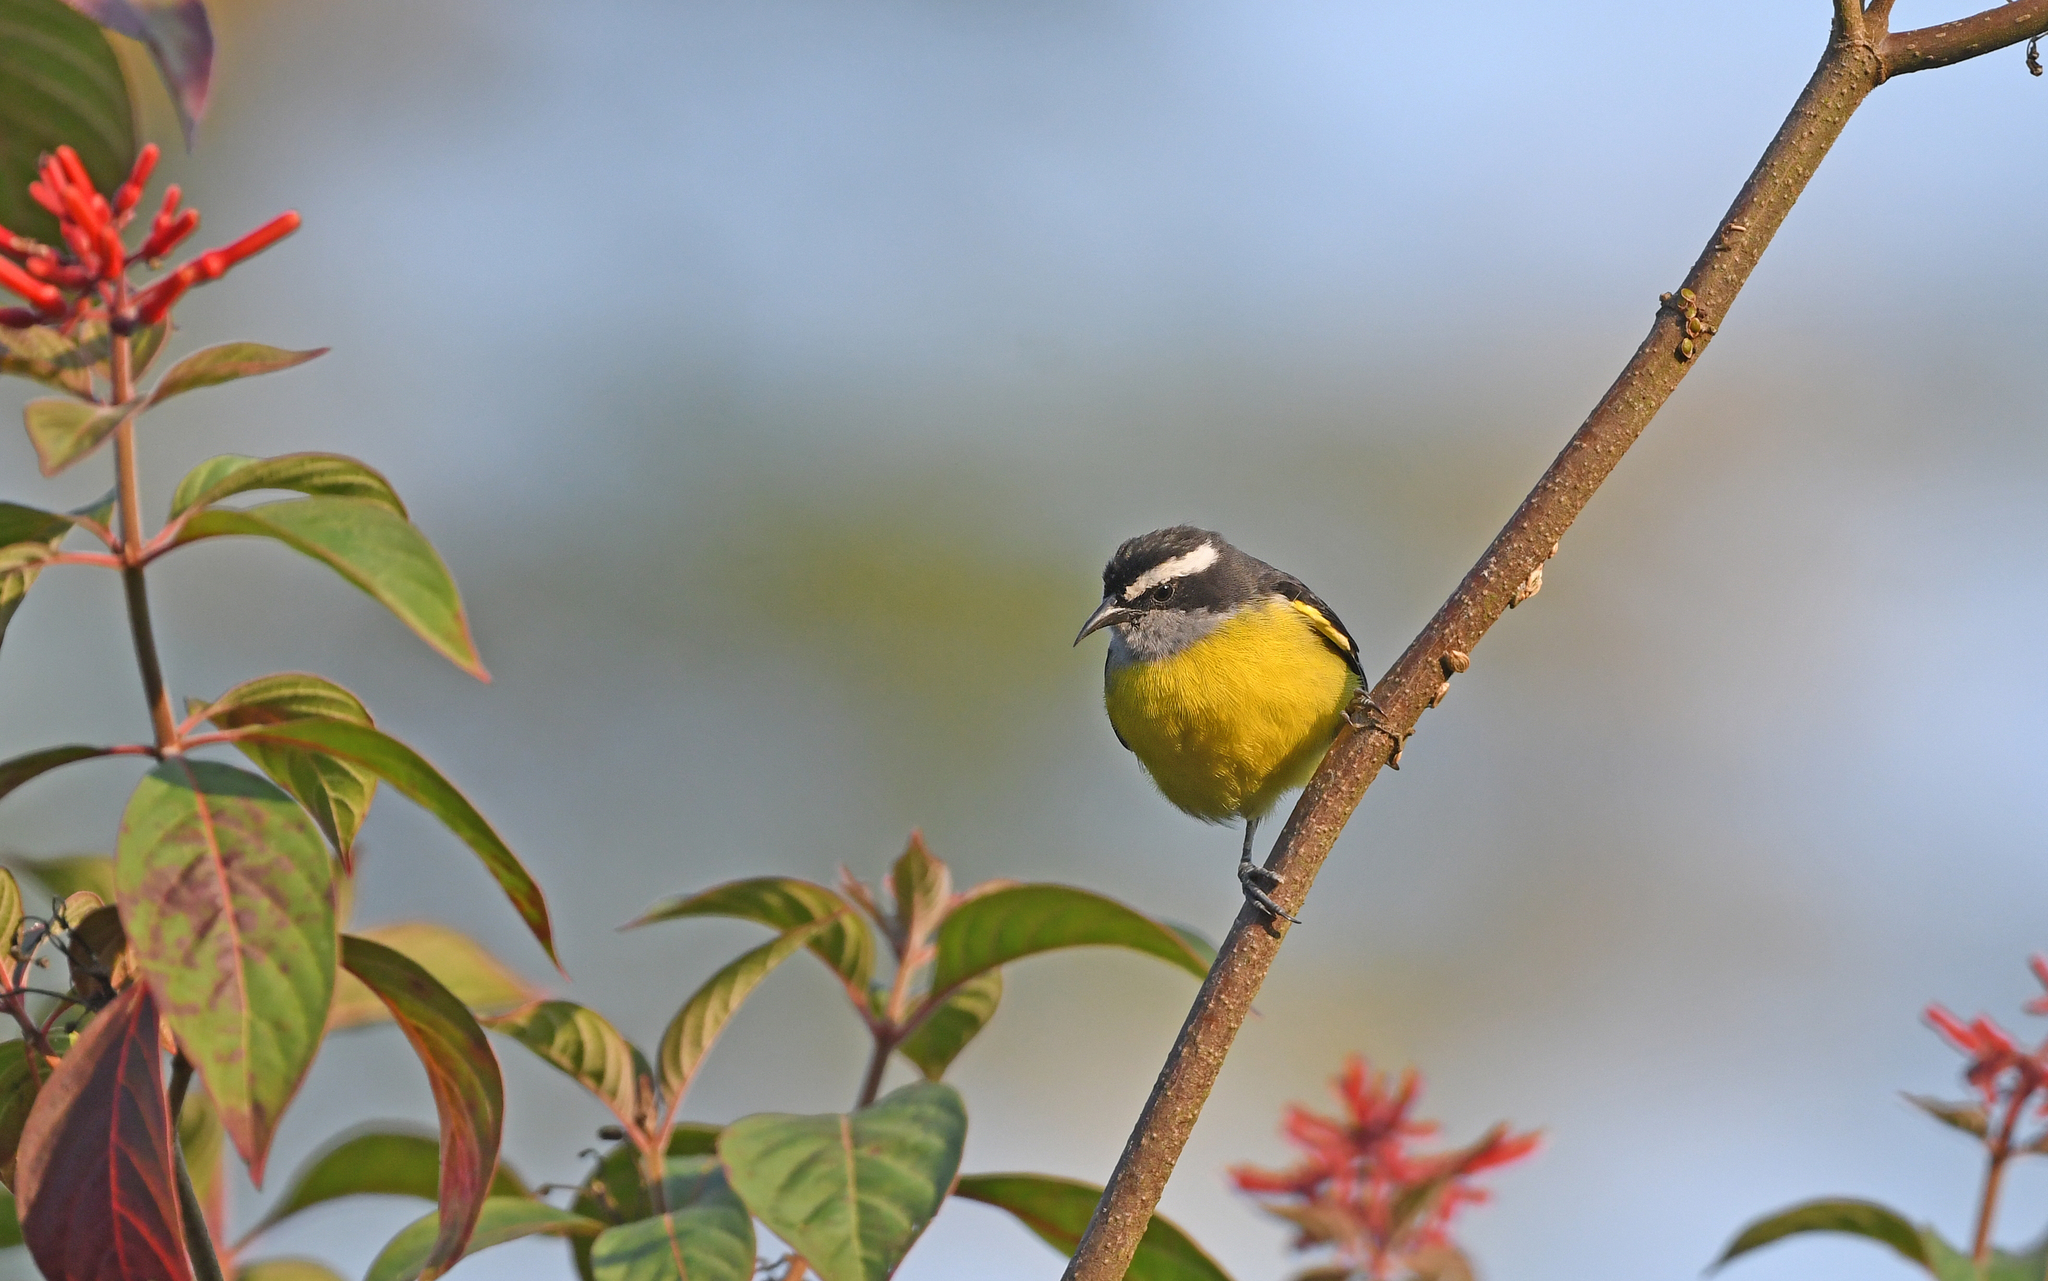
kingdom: Animalia
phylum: Chordata
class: Aves
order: Passeriformes
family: Thraupidae
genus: Coereba
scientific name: Coereba flaveola
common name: Bananaquit
